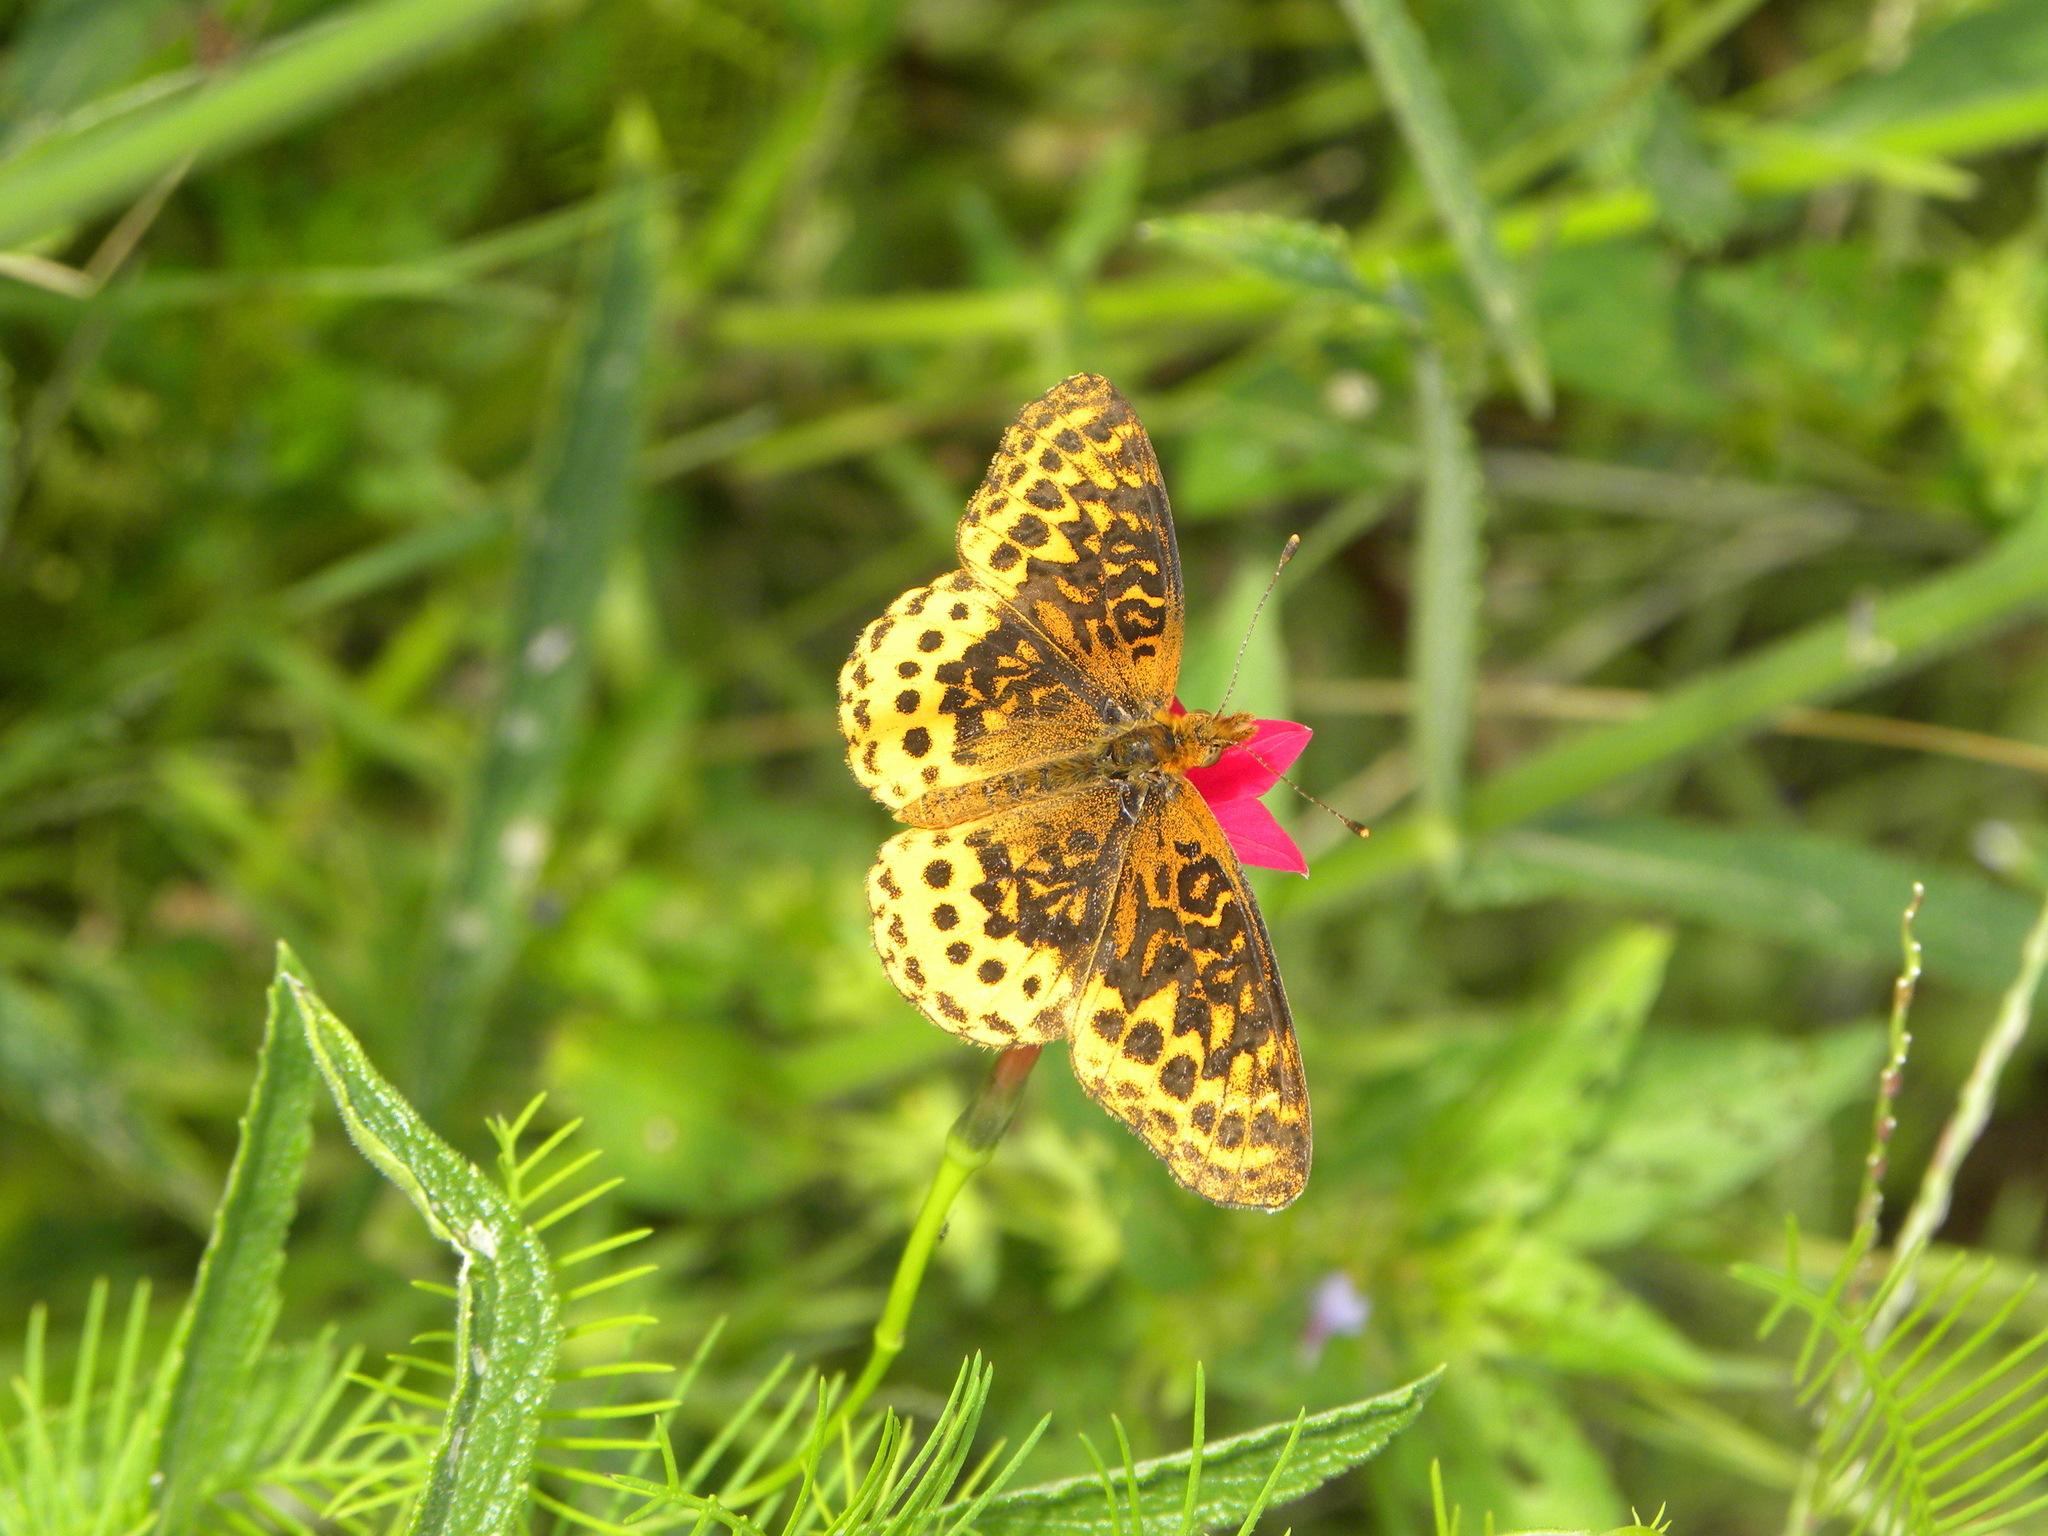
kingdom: Animalia
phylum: Arthropoda
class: Insecta
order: Lepidoptera
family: Nymphalidae
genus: Clossiana
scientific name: Clossiana toddi
